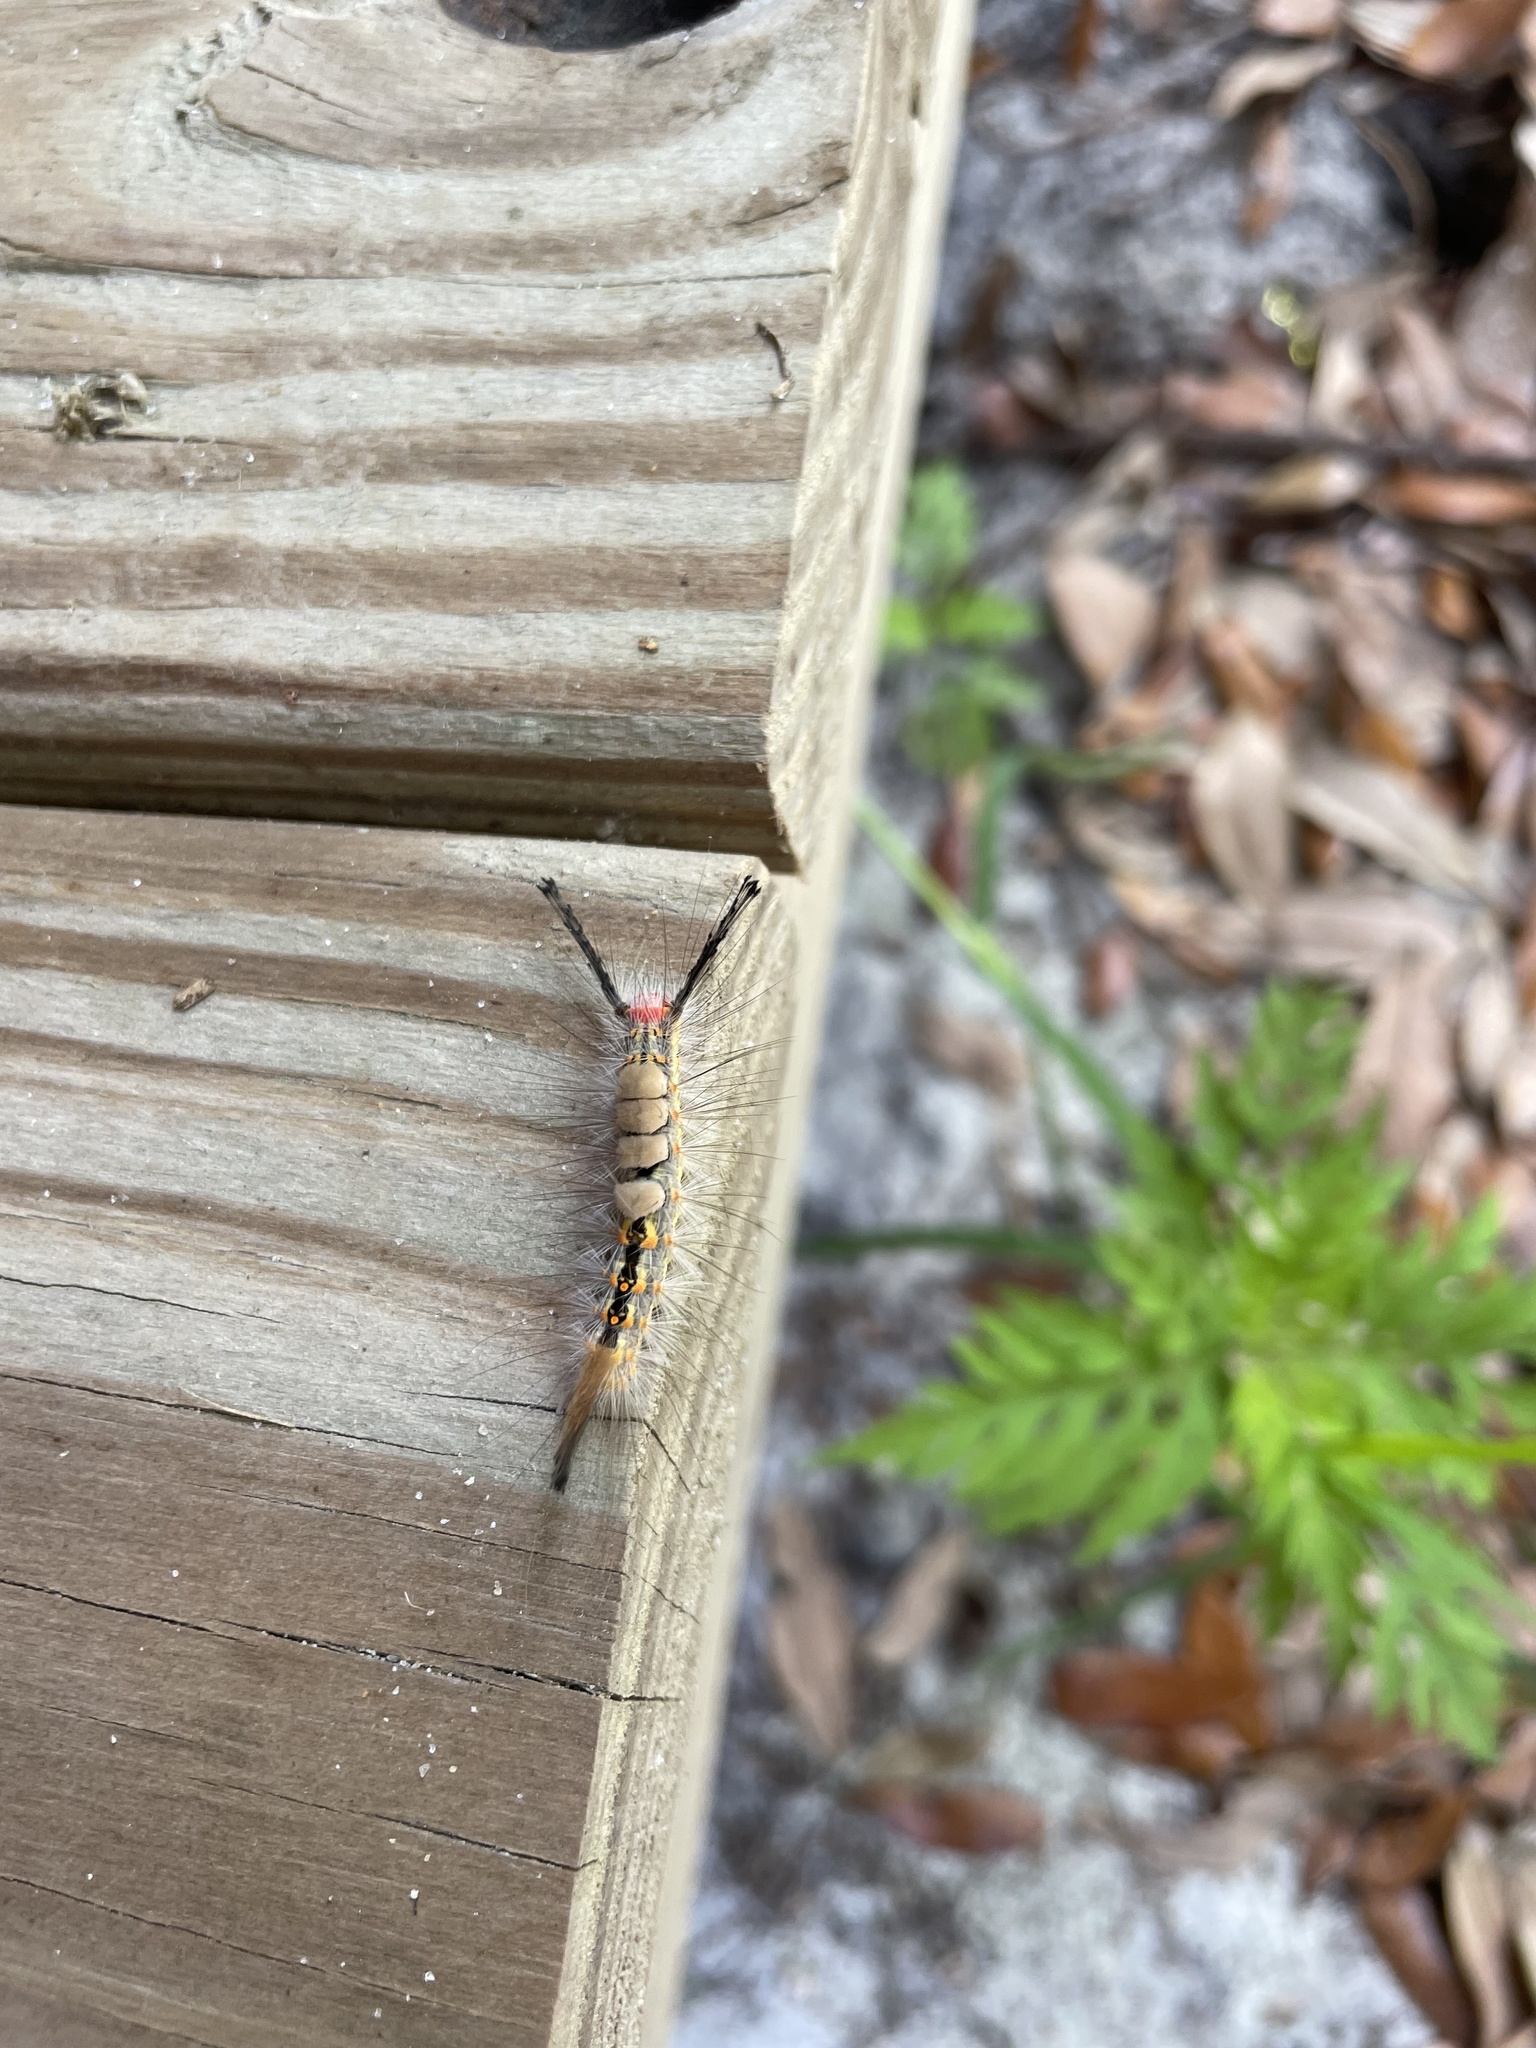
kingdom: Animalia
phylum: Arthropoda
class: Insecta
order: Lepidoptera
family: Erebidae
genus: Orgyia
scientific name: Orgyia detrita
